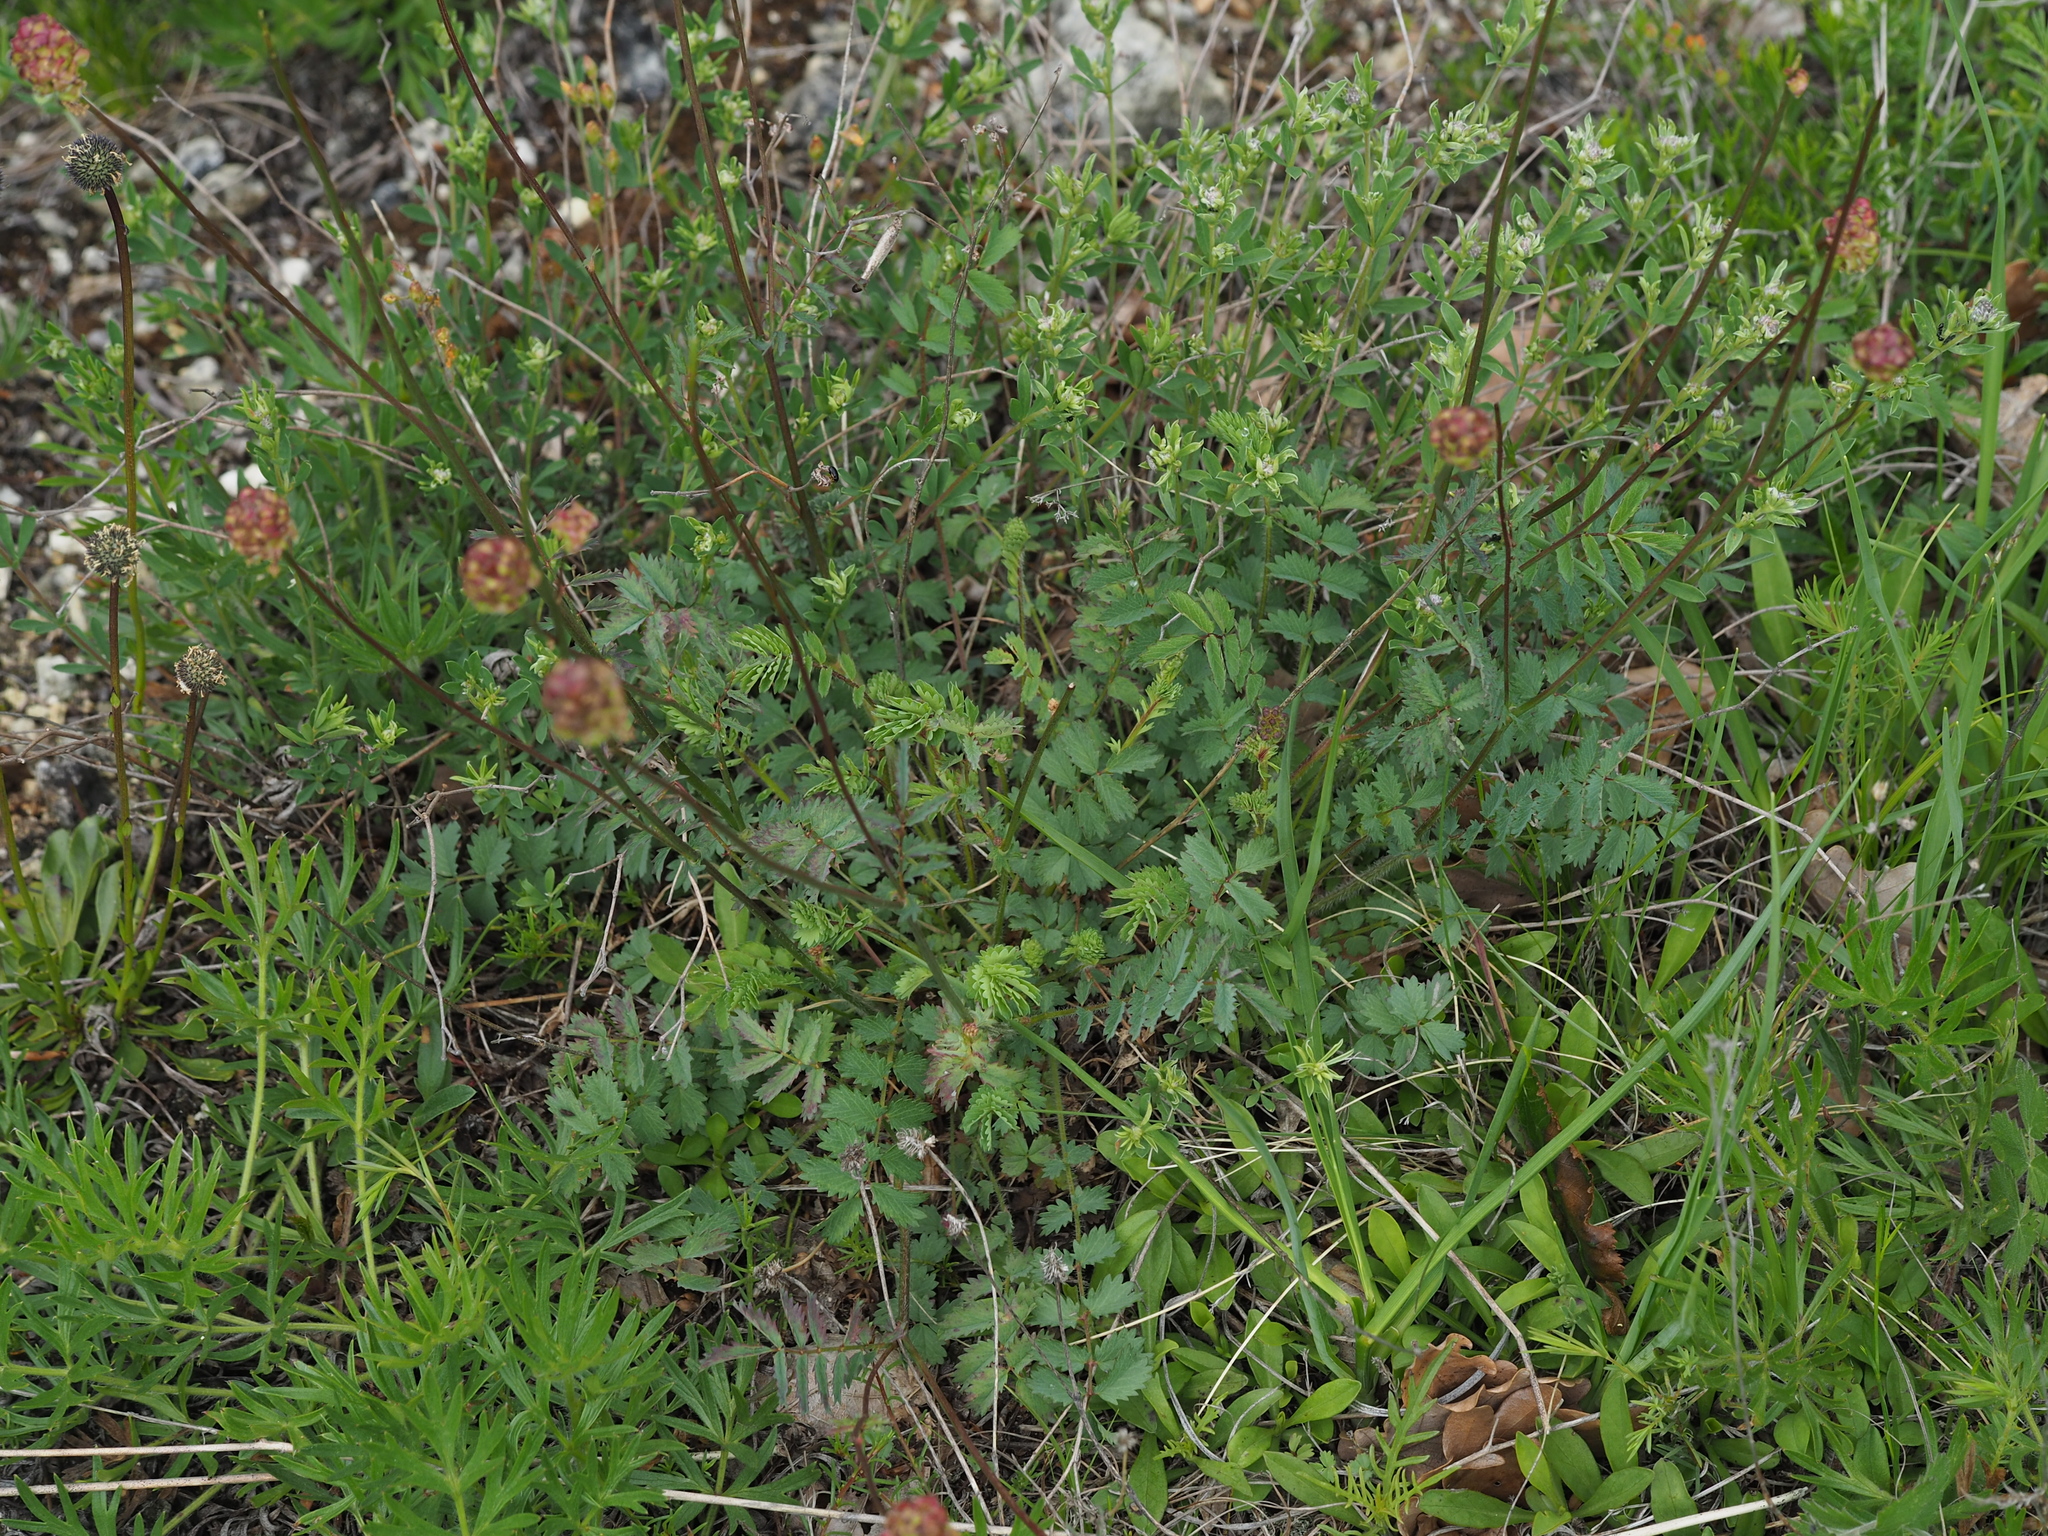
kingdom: Plantae
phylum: Tracheophyta
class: Magnoliopsida
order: Rosales
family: Rosaceae
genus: Poterium
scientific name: Poterium sanguisorba
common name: Salad burnet
